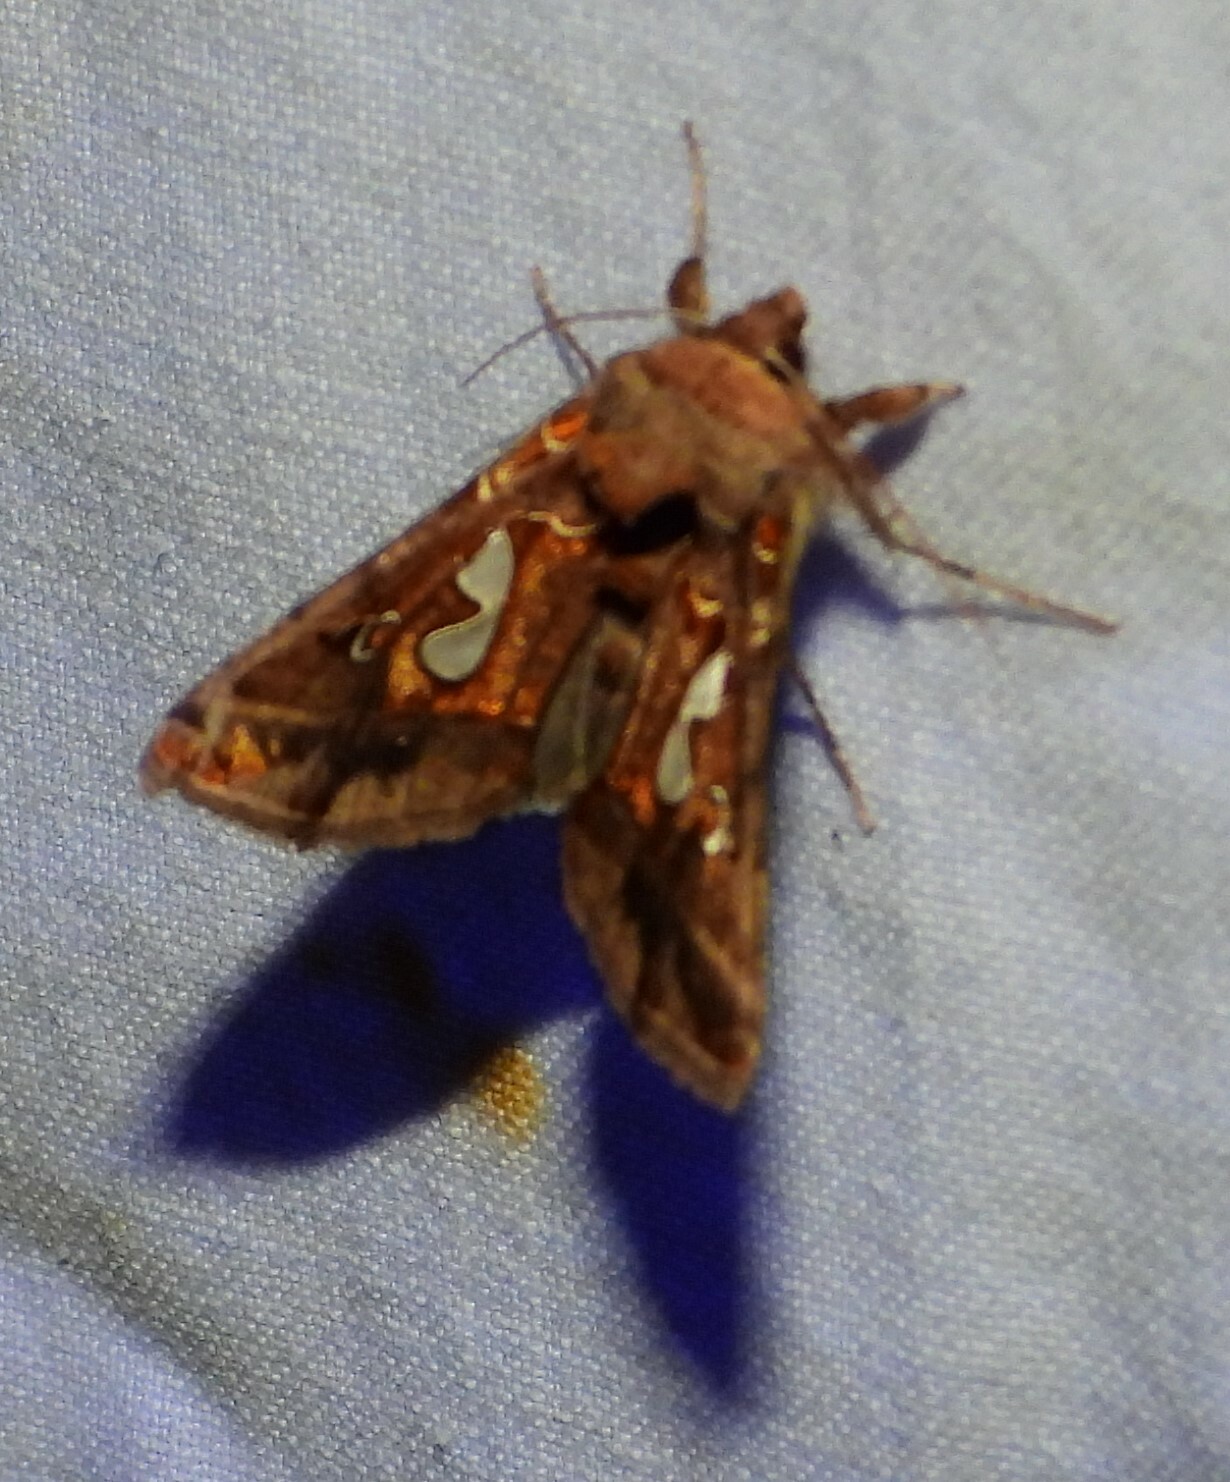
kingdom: Animalia
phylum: Arthropoda
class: Insecta
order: Lepidoptera
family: Noctuidae
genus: Megalographa
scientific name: Megalographa biloba
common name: Cutworm
